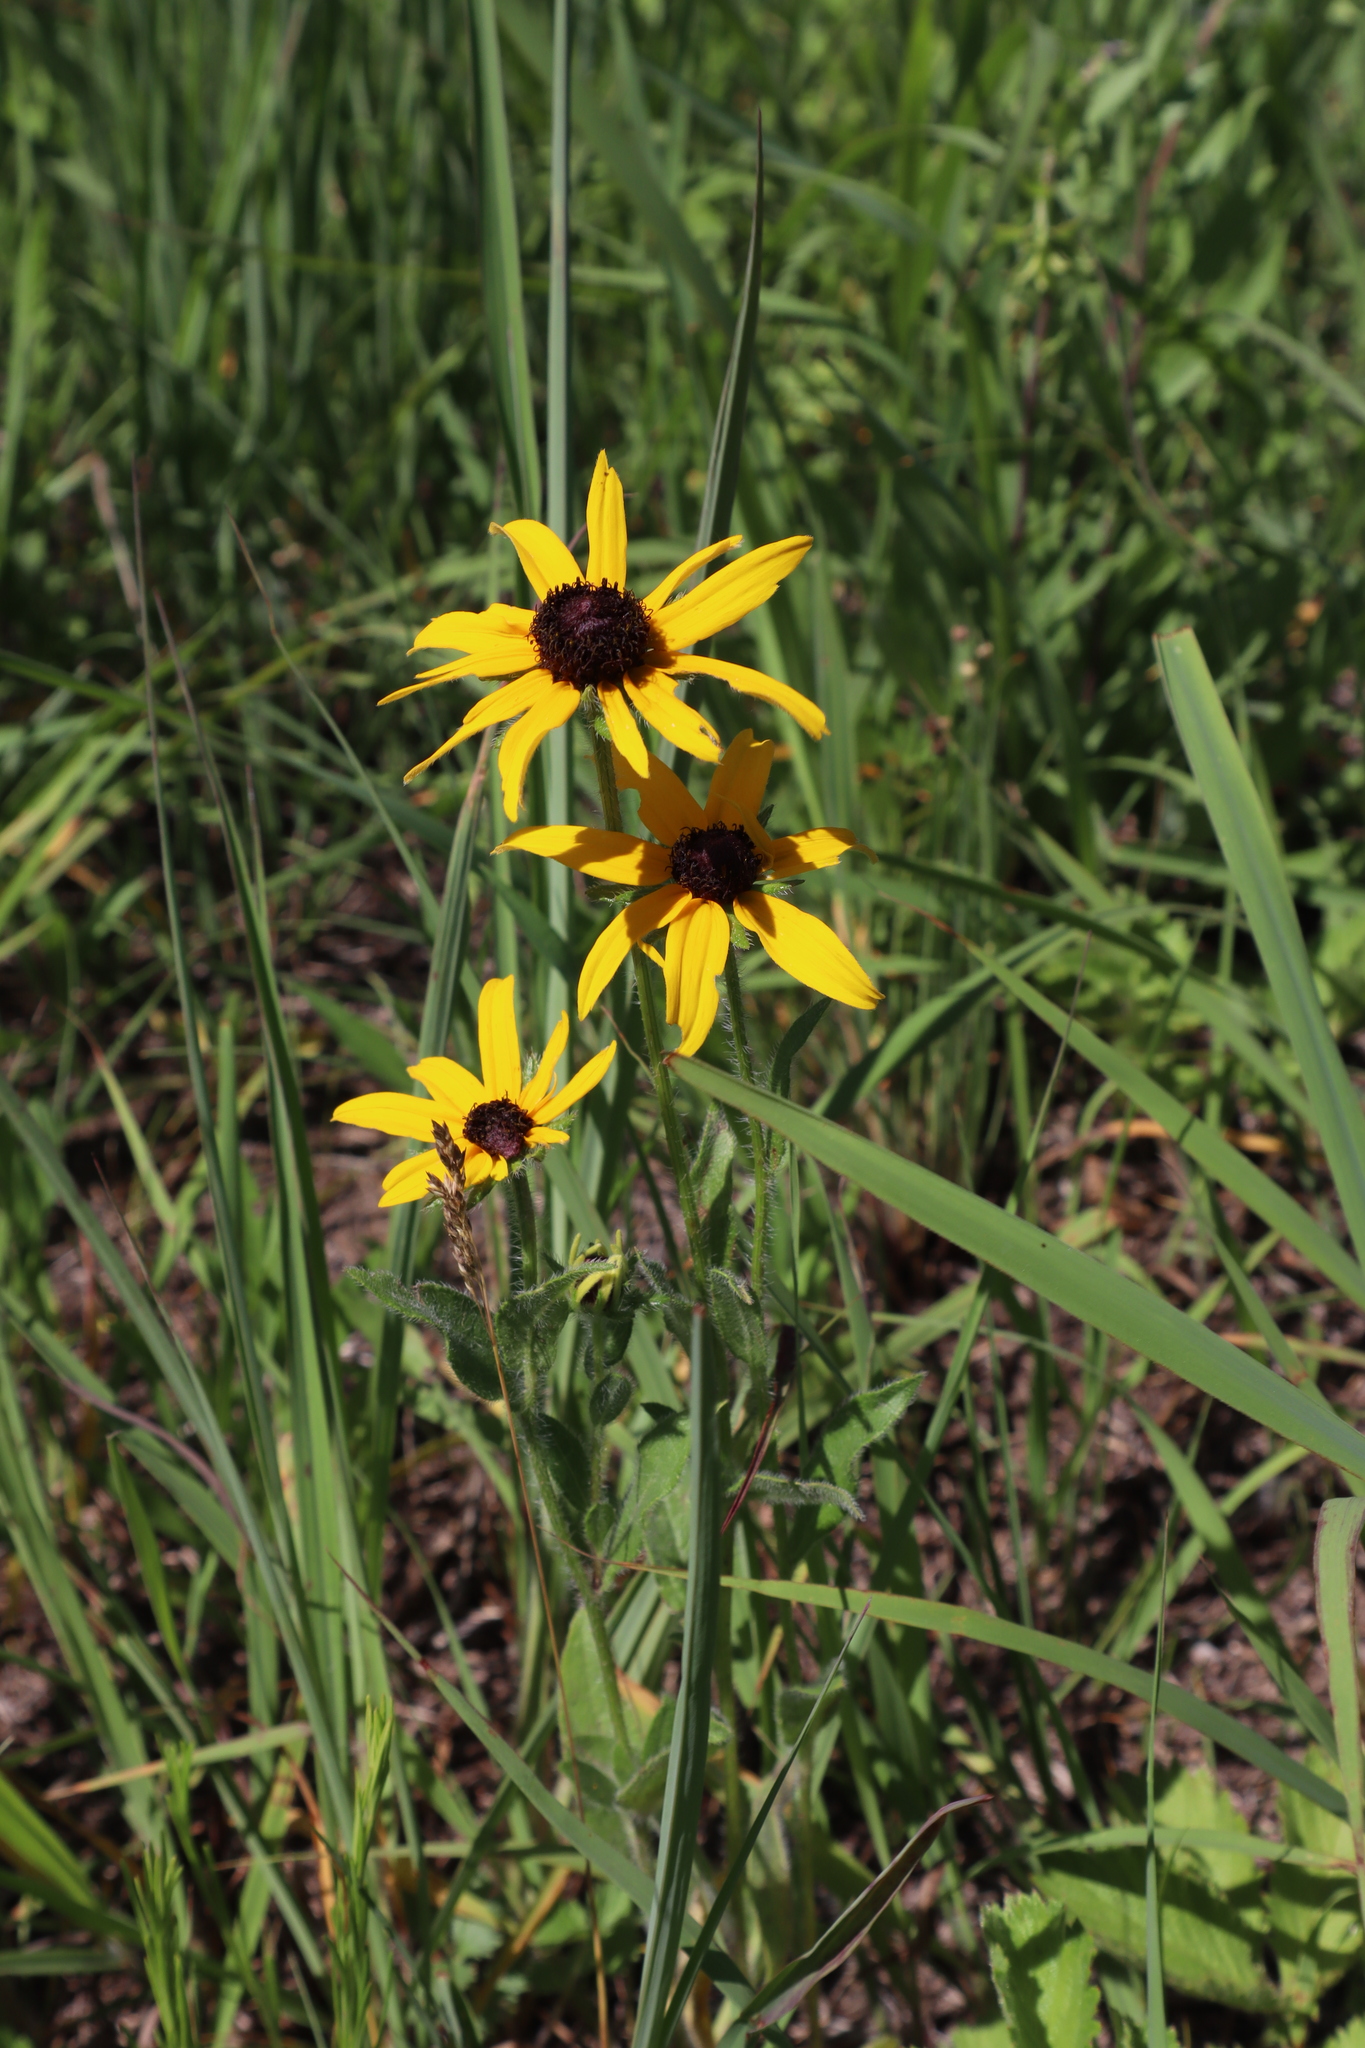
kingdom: Plantae
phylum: Tracheophyta
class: Magnoliopsida
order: Asterales
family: Asteraceae
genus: Rudbeckia
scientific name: Rudbeckia hirta
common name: Black-eyed-susan
